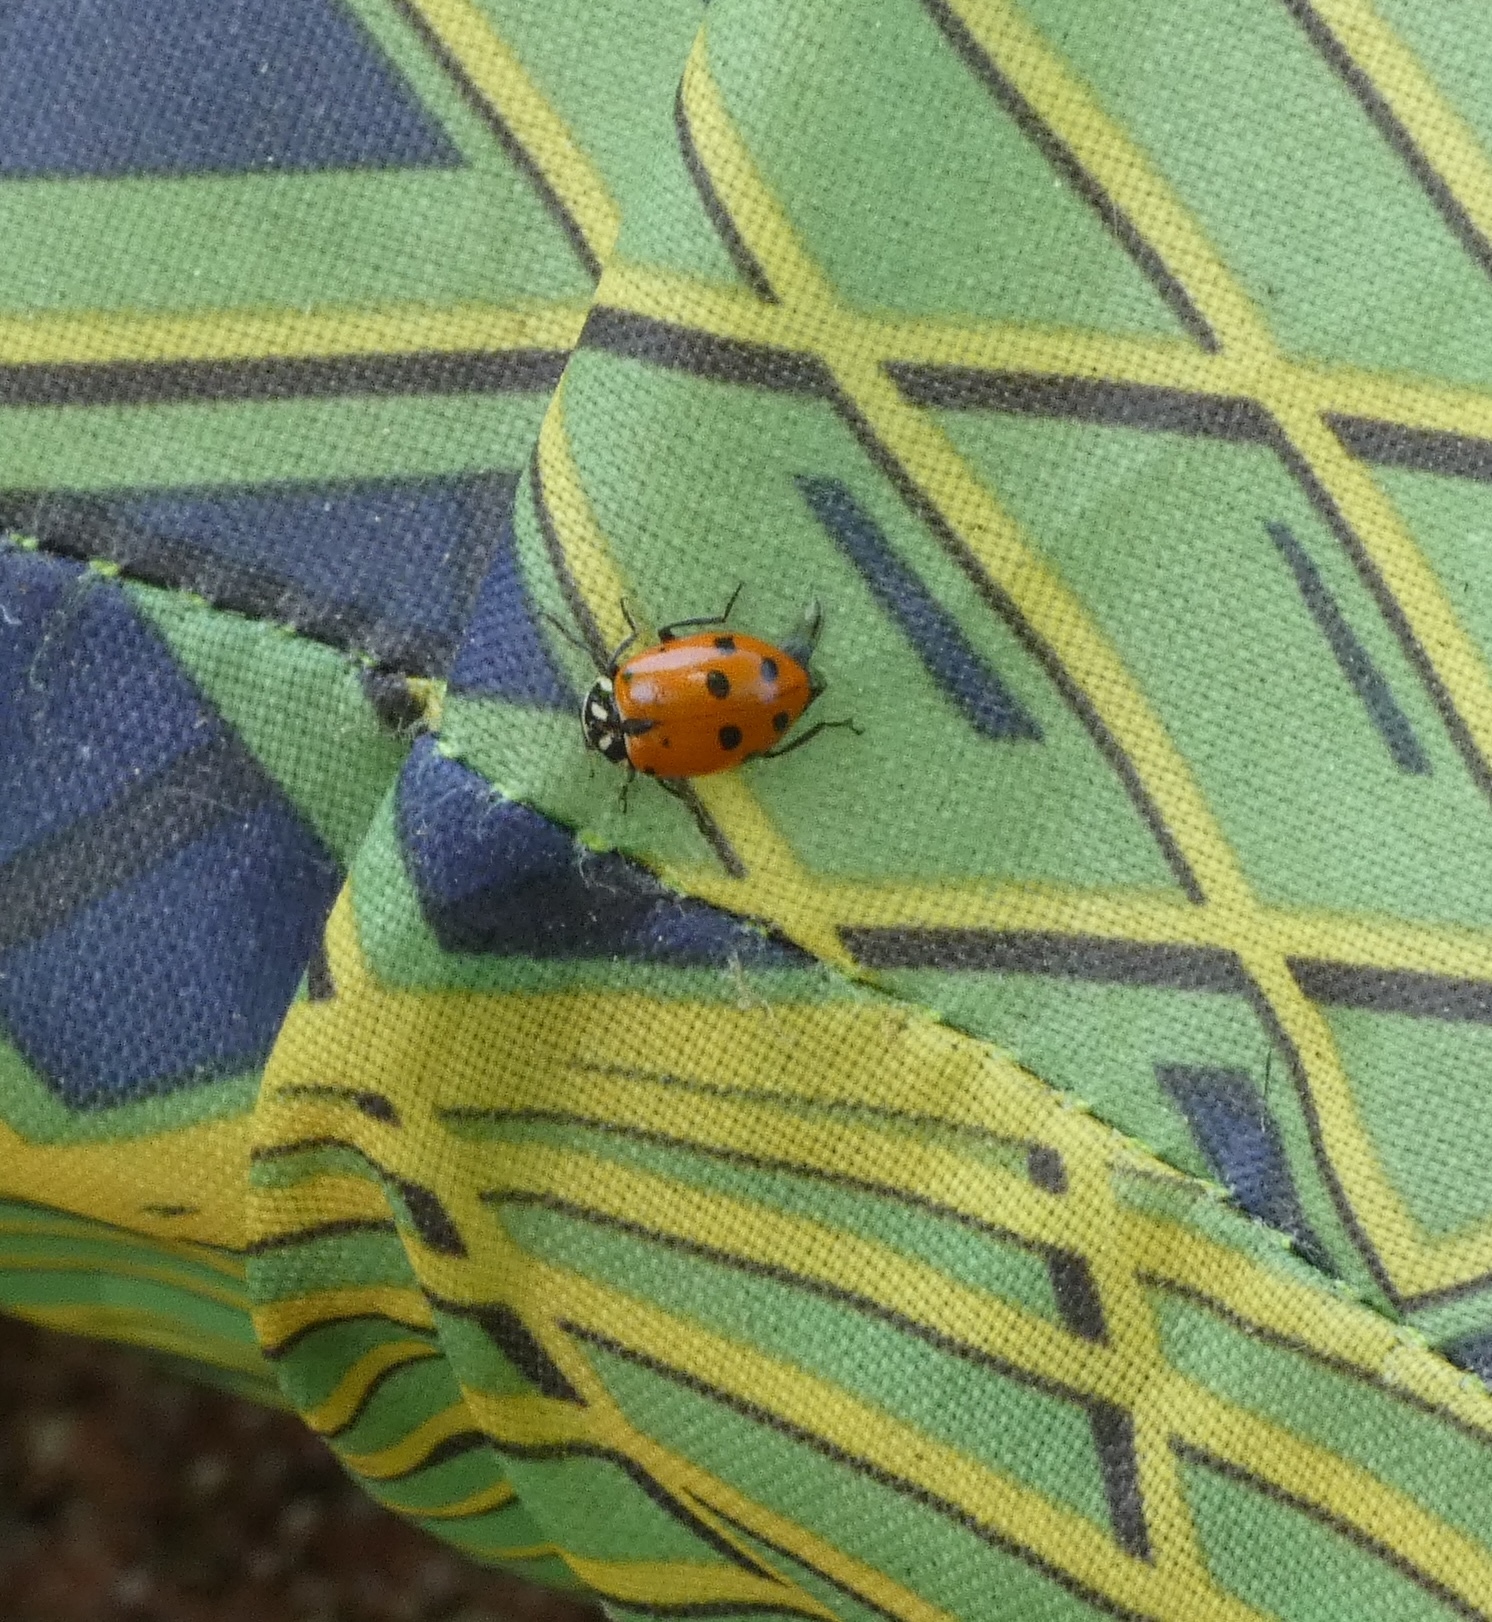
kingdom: Animalia
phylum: Arthropoda
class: Insecta
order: Coleoptera
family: Coccinellidae
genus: Hippodamia
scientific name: Hippodamia convergens
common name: Convergent lady beetle
